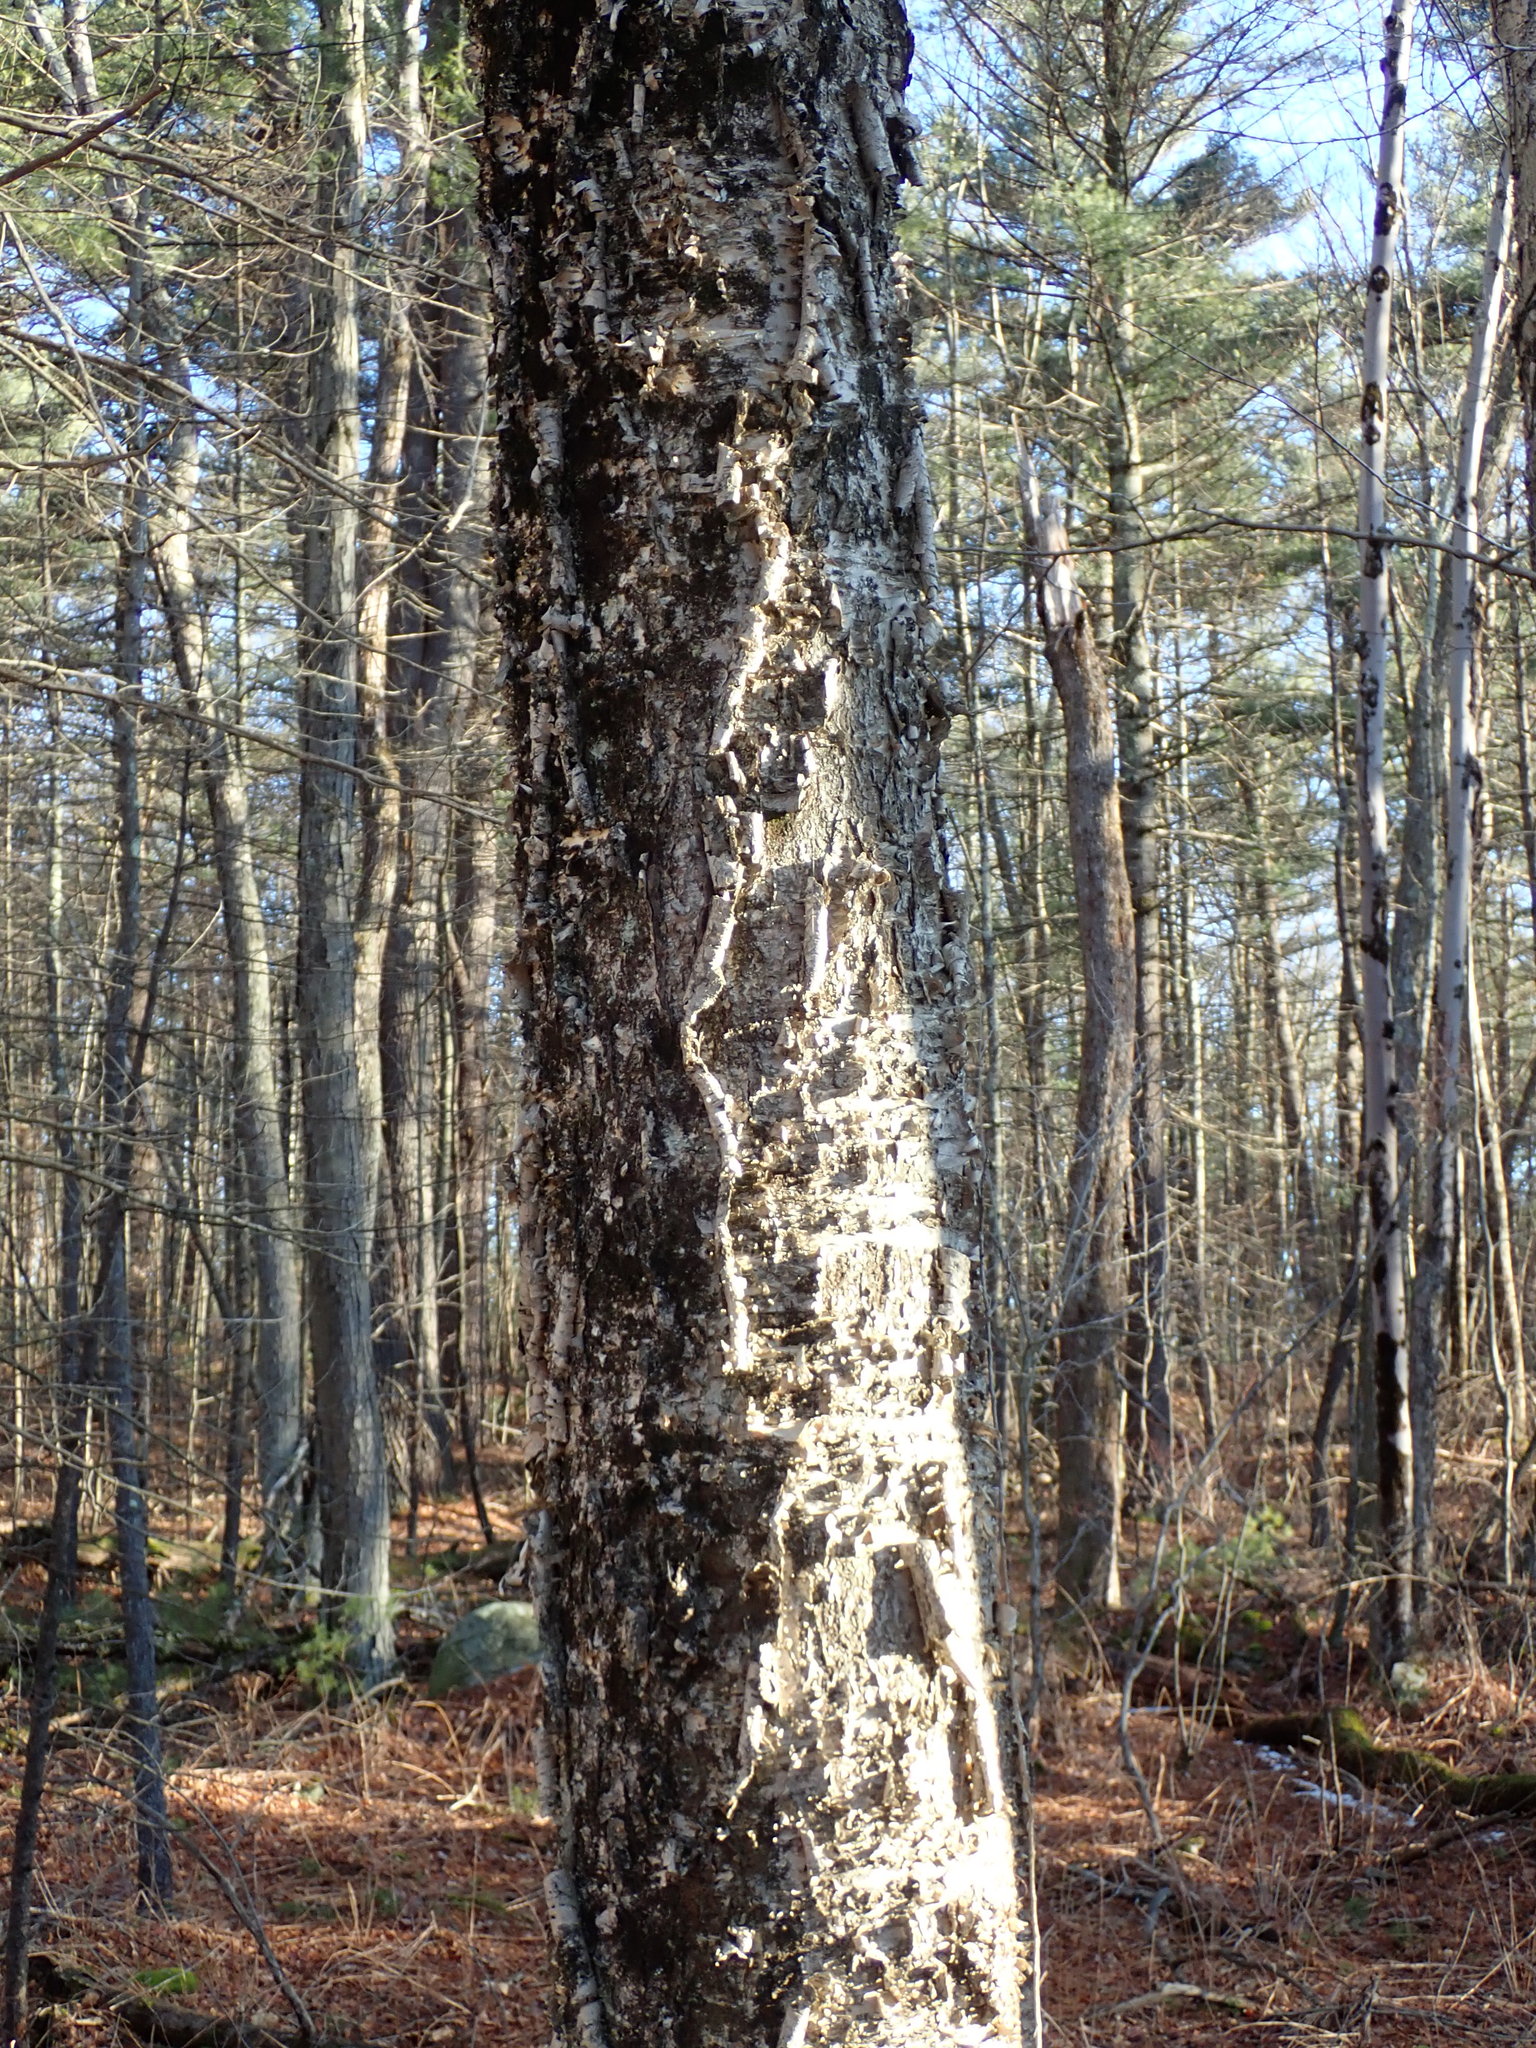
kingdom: Plantae
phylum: Tracheophyta
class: Magnoliopsida
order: Fagales
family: Betulaceae
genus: Betula
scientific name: Betula alleghaniensis
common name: Yellow birch
